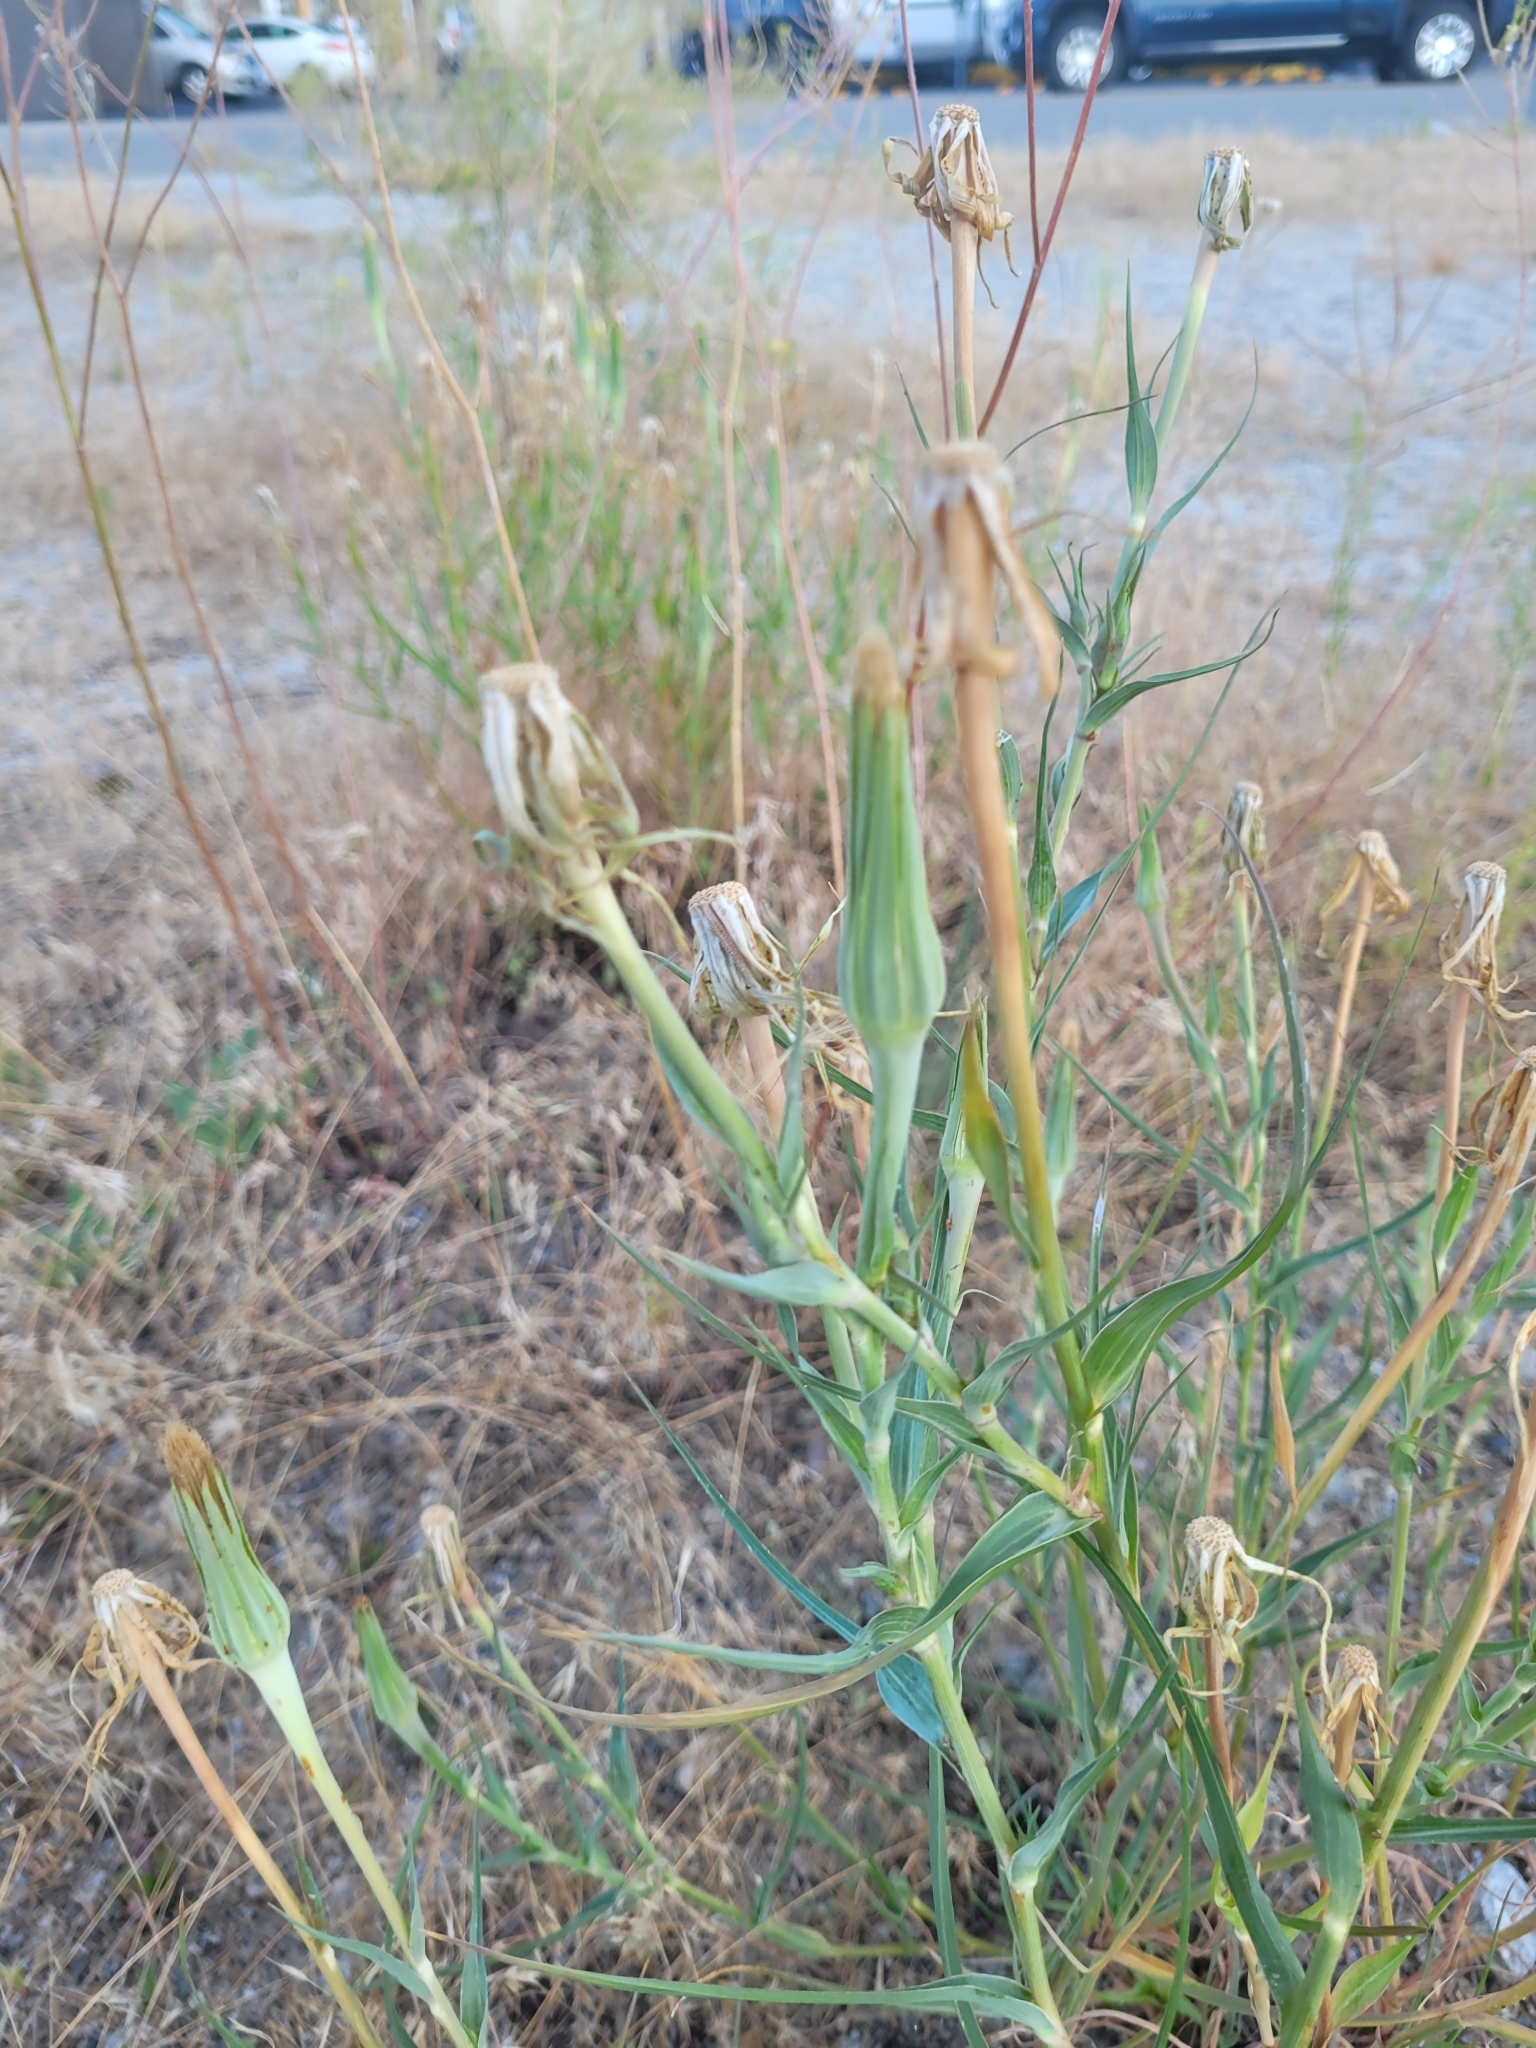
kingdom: Plantae
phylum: Tracheophyta
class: Magnoliopsida
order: Asterales
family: Asteraceae
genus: Tragopogon
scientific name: Tragopogon dubius
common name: Yellow salsify
